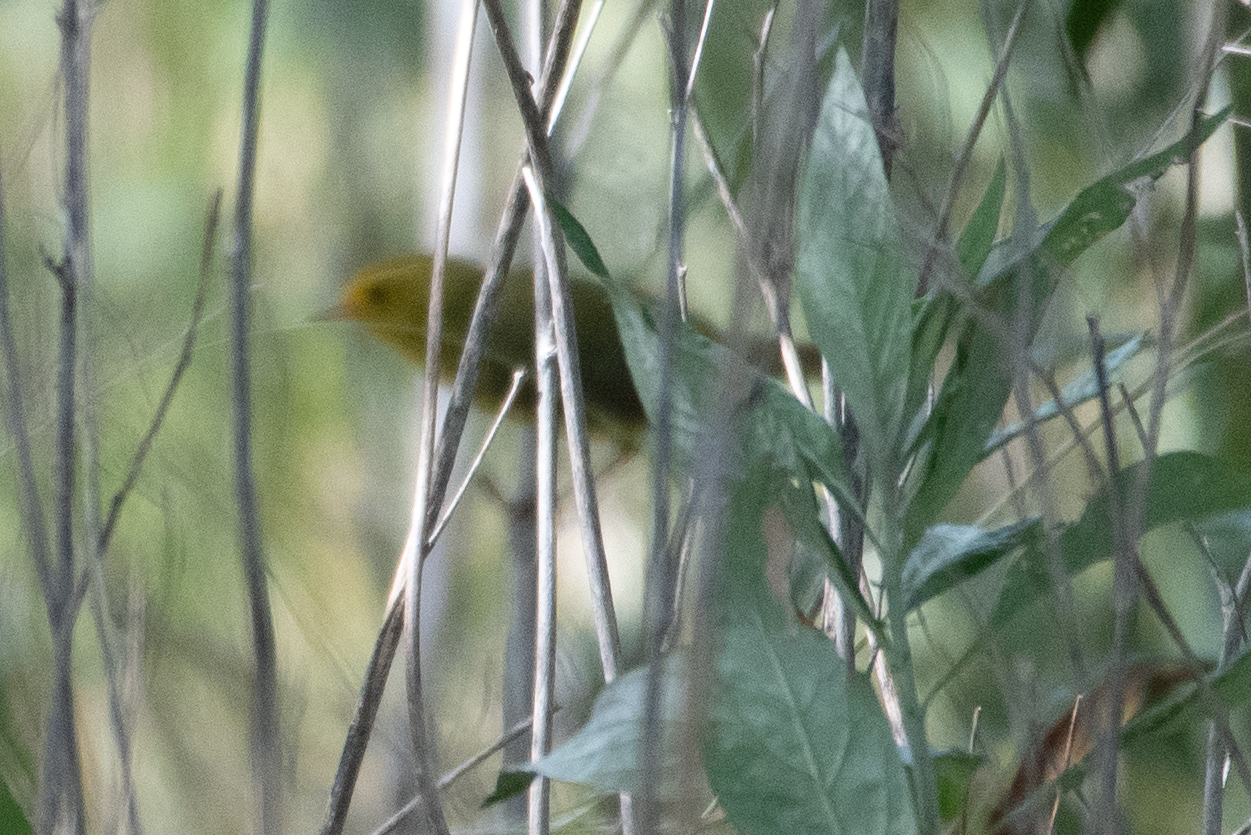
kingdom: Animalia
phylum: Chordata
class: Aves
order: Passeriformes
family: Parulidae
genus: Setophaga
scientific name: Setophaga petechia
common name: Yellow warbler
